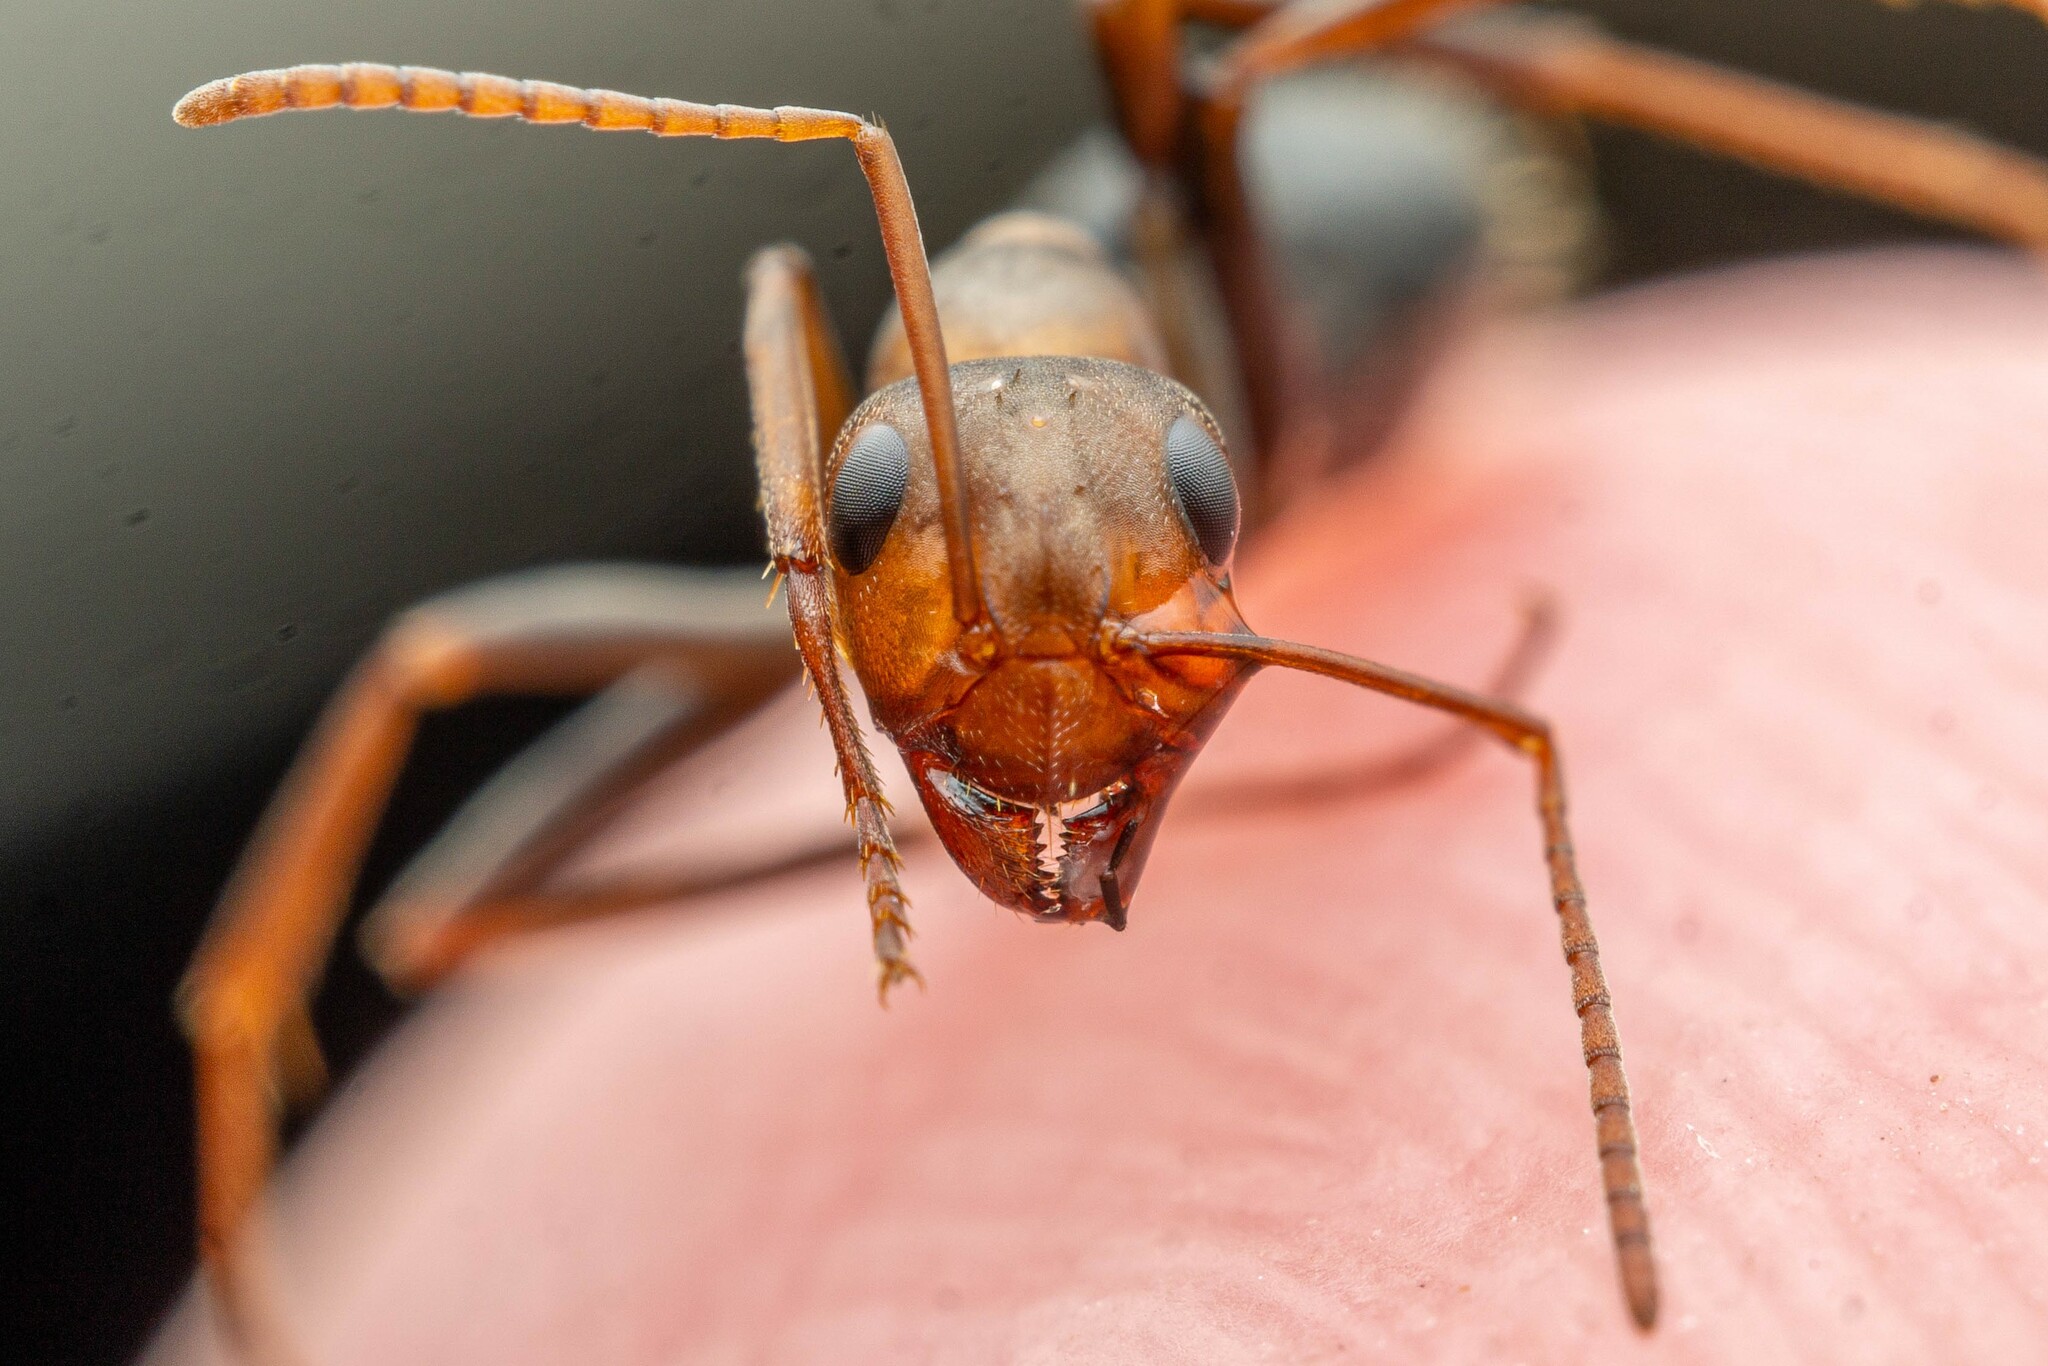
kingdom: Animalia
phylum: Arthropoda
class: Insecta
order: Hymenoptera
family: Formicidae
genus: Formica
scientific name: Formica foreliana
